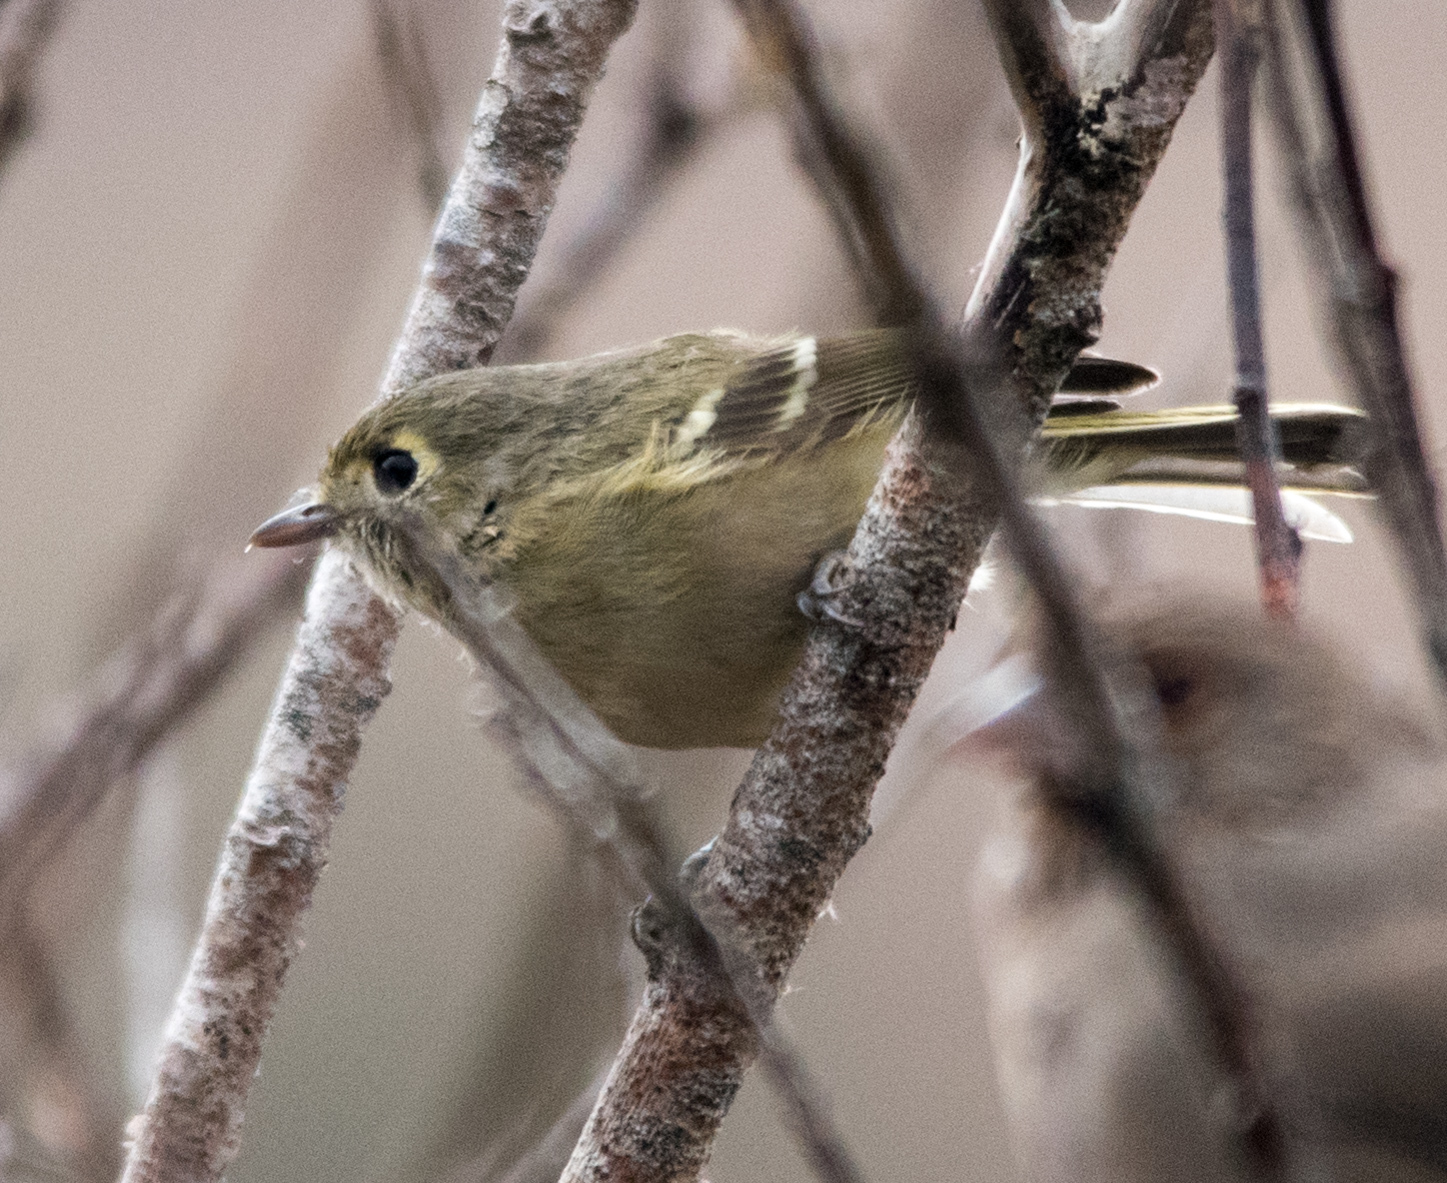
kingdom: Animalia
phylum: Chordata
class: Aves
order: Passeriformes
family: Vireonidae
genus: Vireo
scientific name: Vireo huttoni
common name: Hutton's vireo
